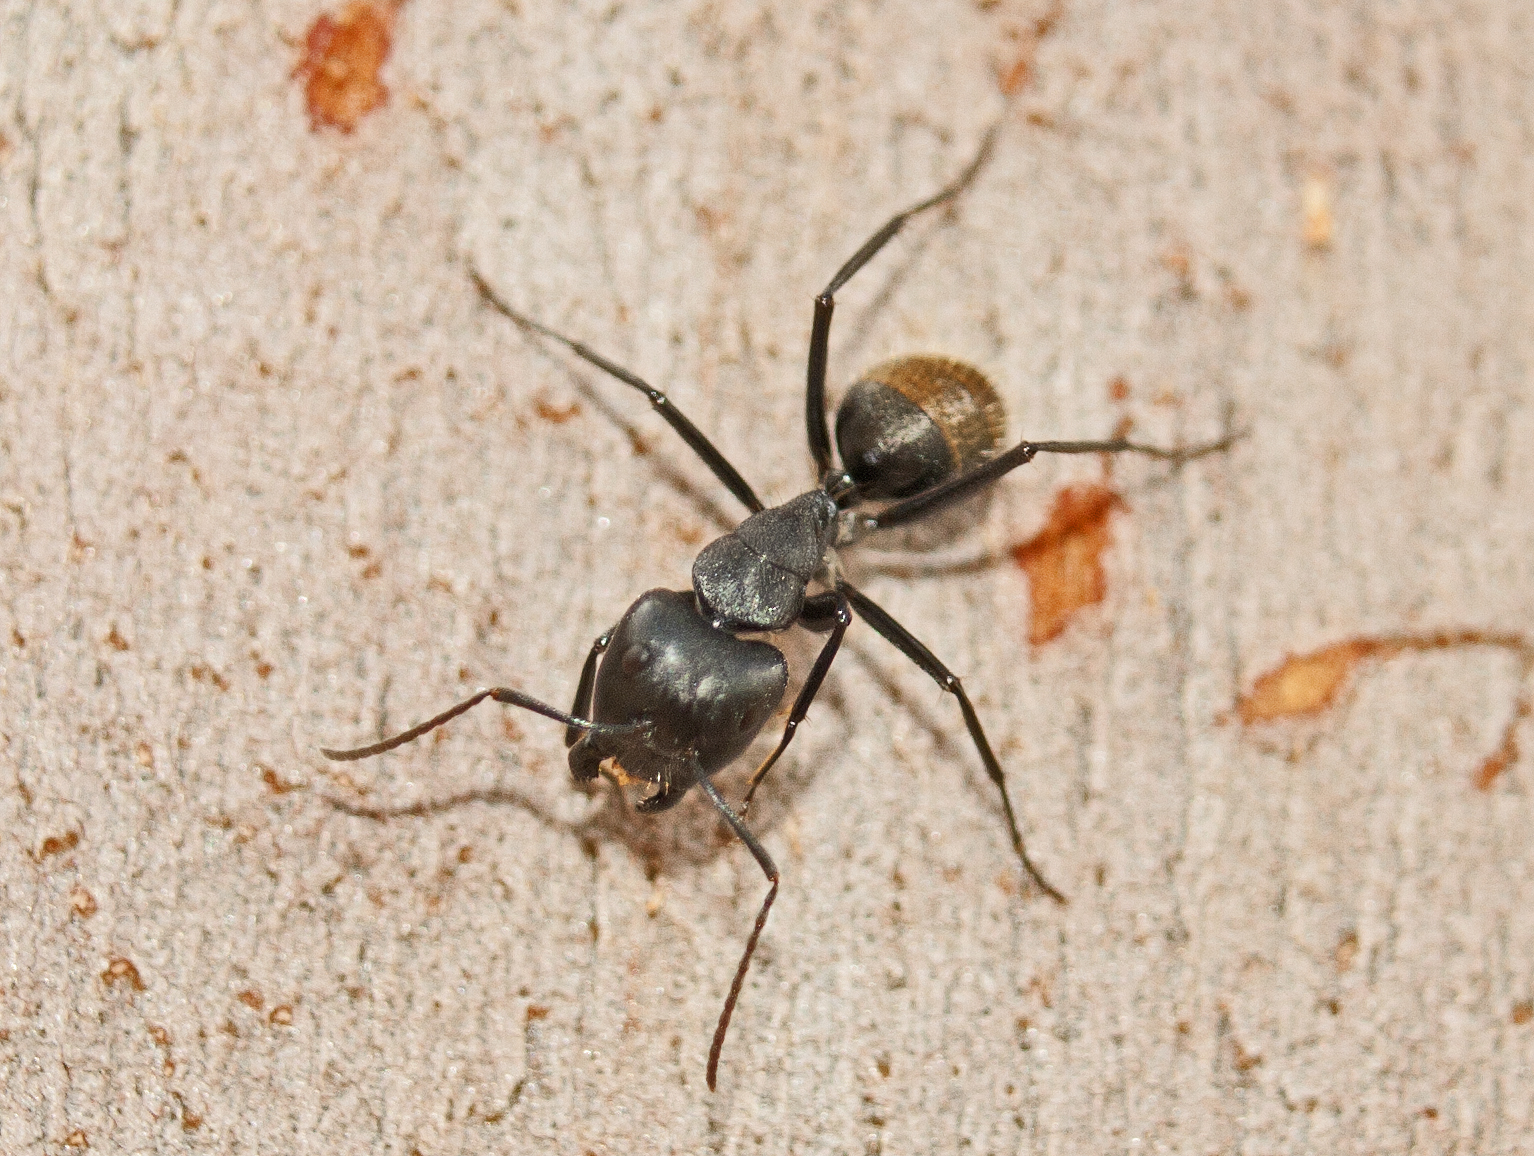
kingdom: Animalia
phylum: Arthropoda
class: Insecta
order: Hymenoptera
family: Formicidae
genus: Camponotus
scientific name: Camponotus aeneopilosus
